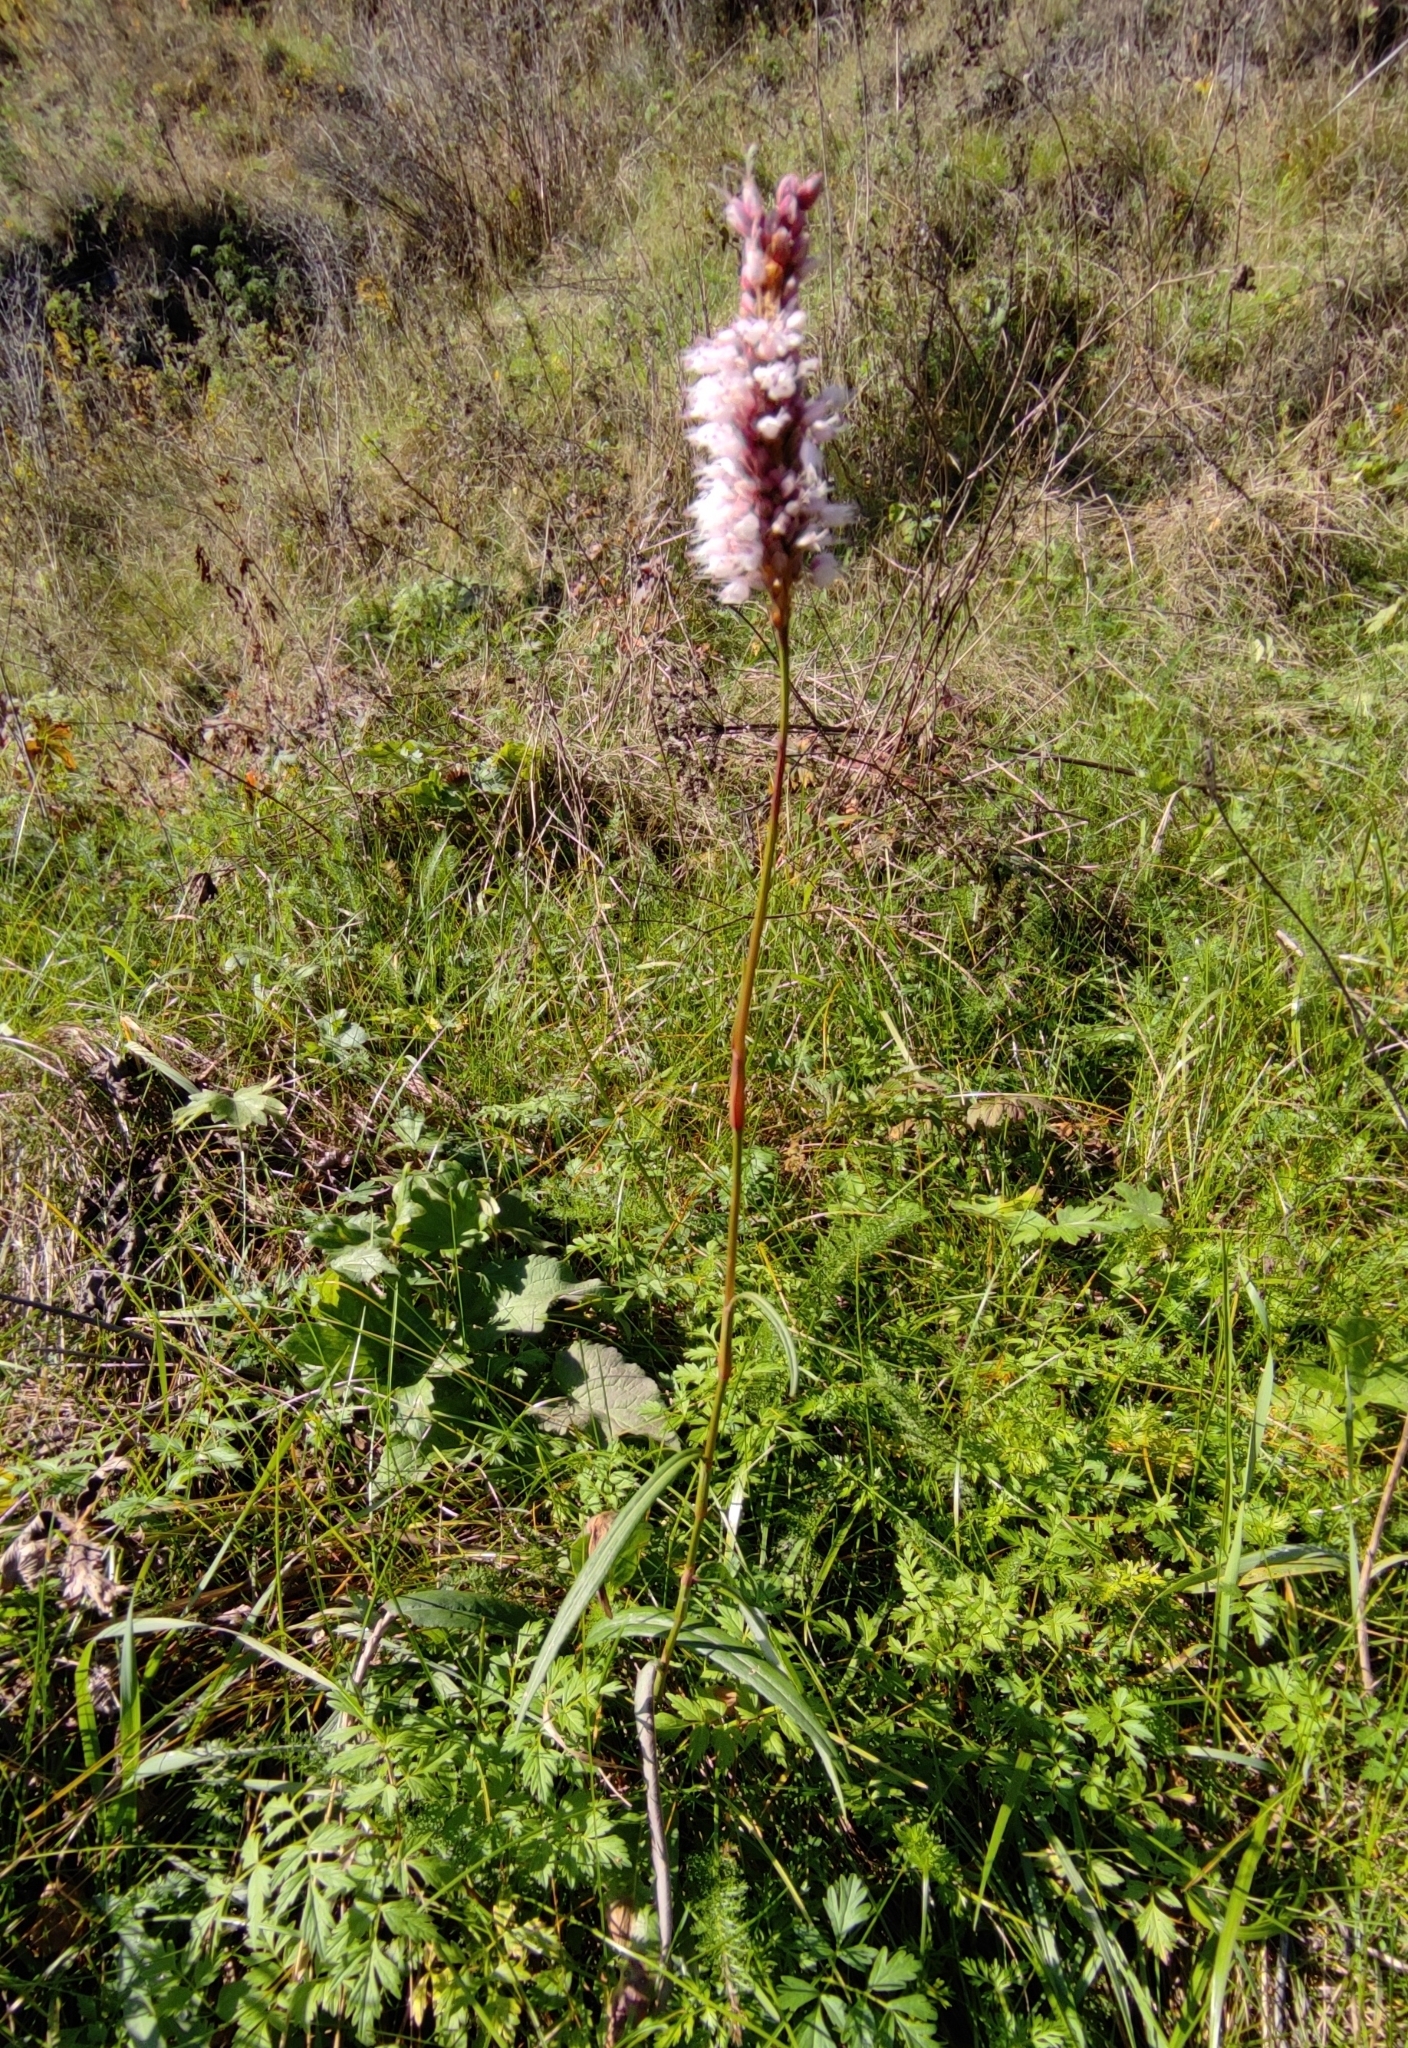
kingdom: Plantae
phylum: Tracheophyta
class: Magnoliopsida
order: Caryophyllales
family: Polygonaceae
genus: Bistorta
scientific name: Bistorta officinalis
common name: Common bistort
